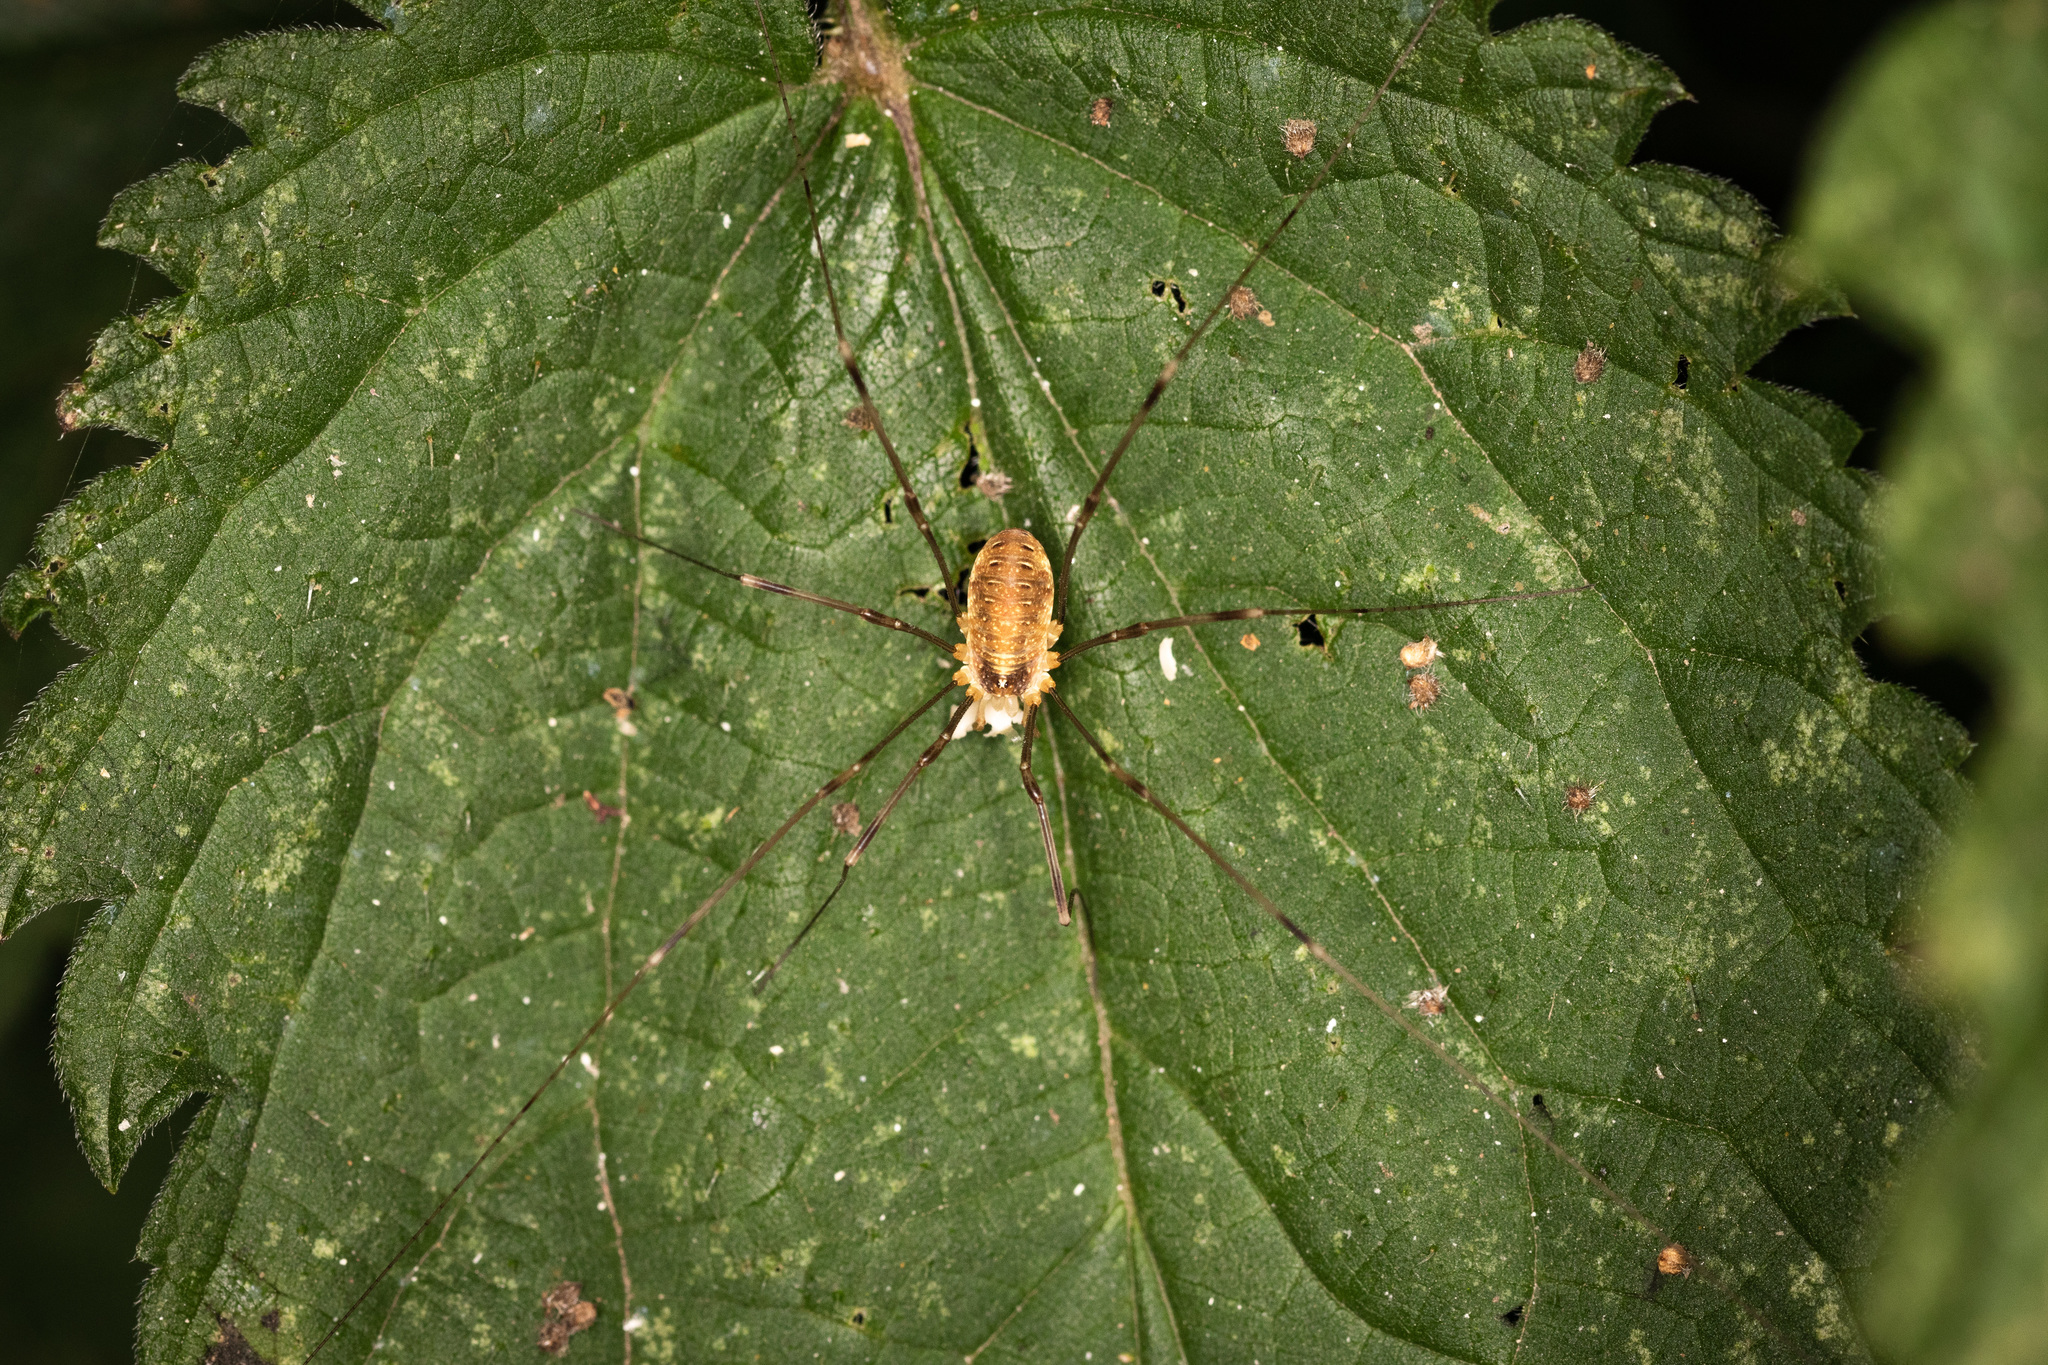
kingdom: Animalia
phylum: Arthropoda
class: Arachnida
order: Opiliones
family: Phalangiidae
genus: Opilio
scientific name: Opilio canestrinii
